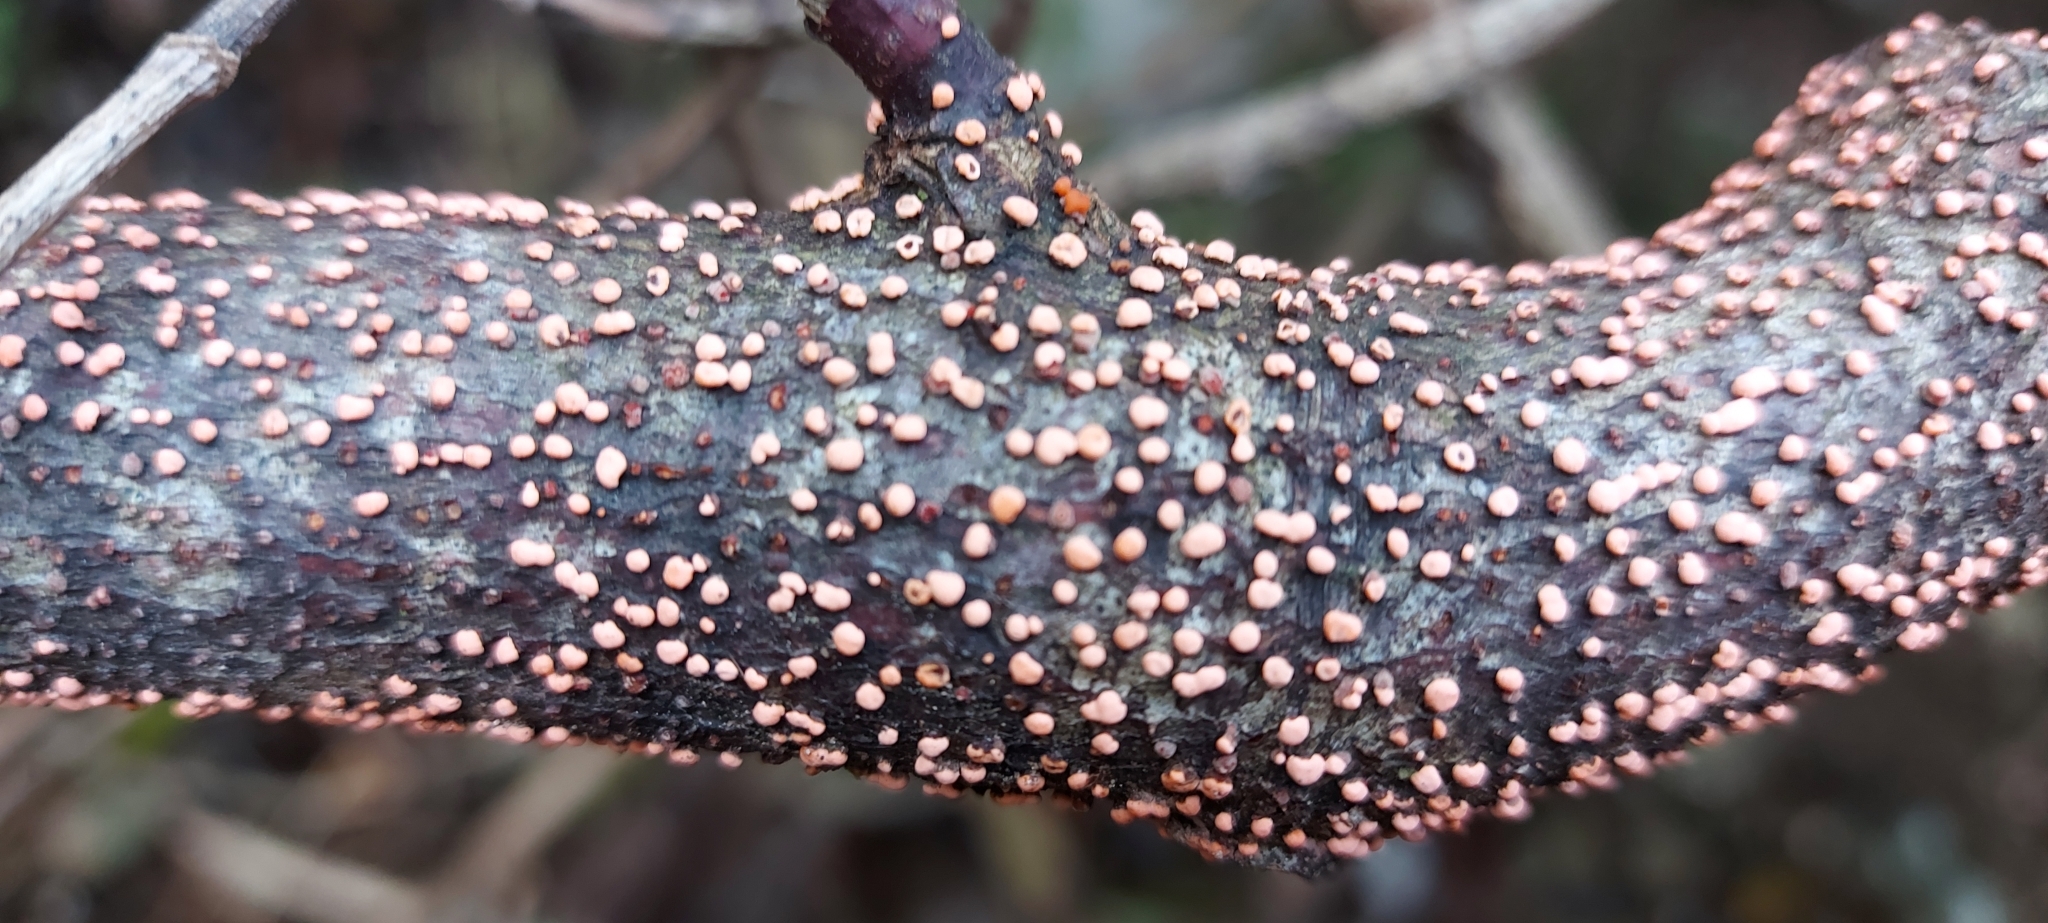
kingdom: Fungi
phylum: Ascomycota
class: Sordariomycetes
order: Hypocreales
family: Nectriaceae
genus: Nectria
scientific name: Nectria cinnabarina
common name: Coral spot
